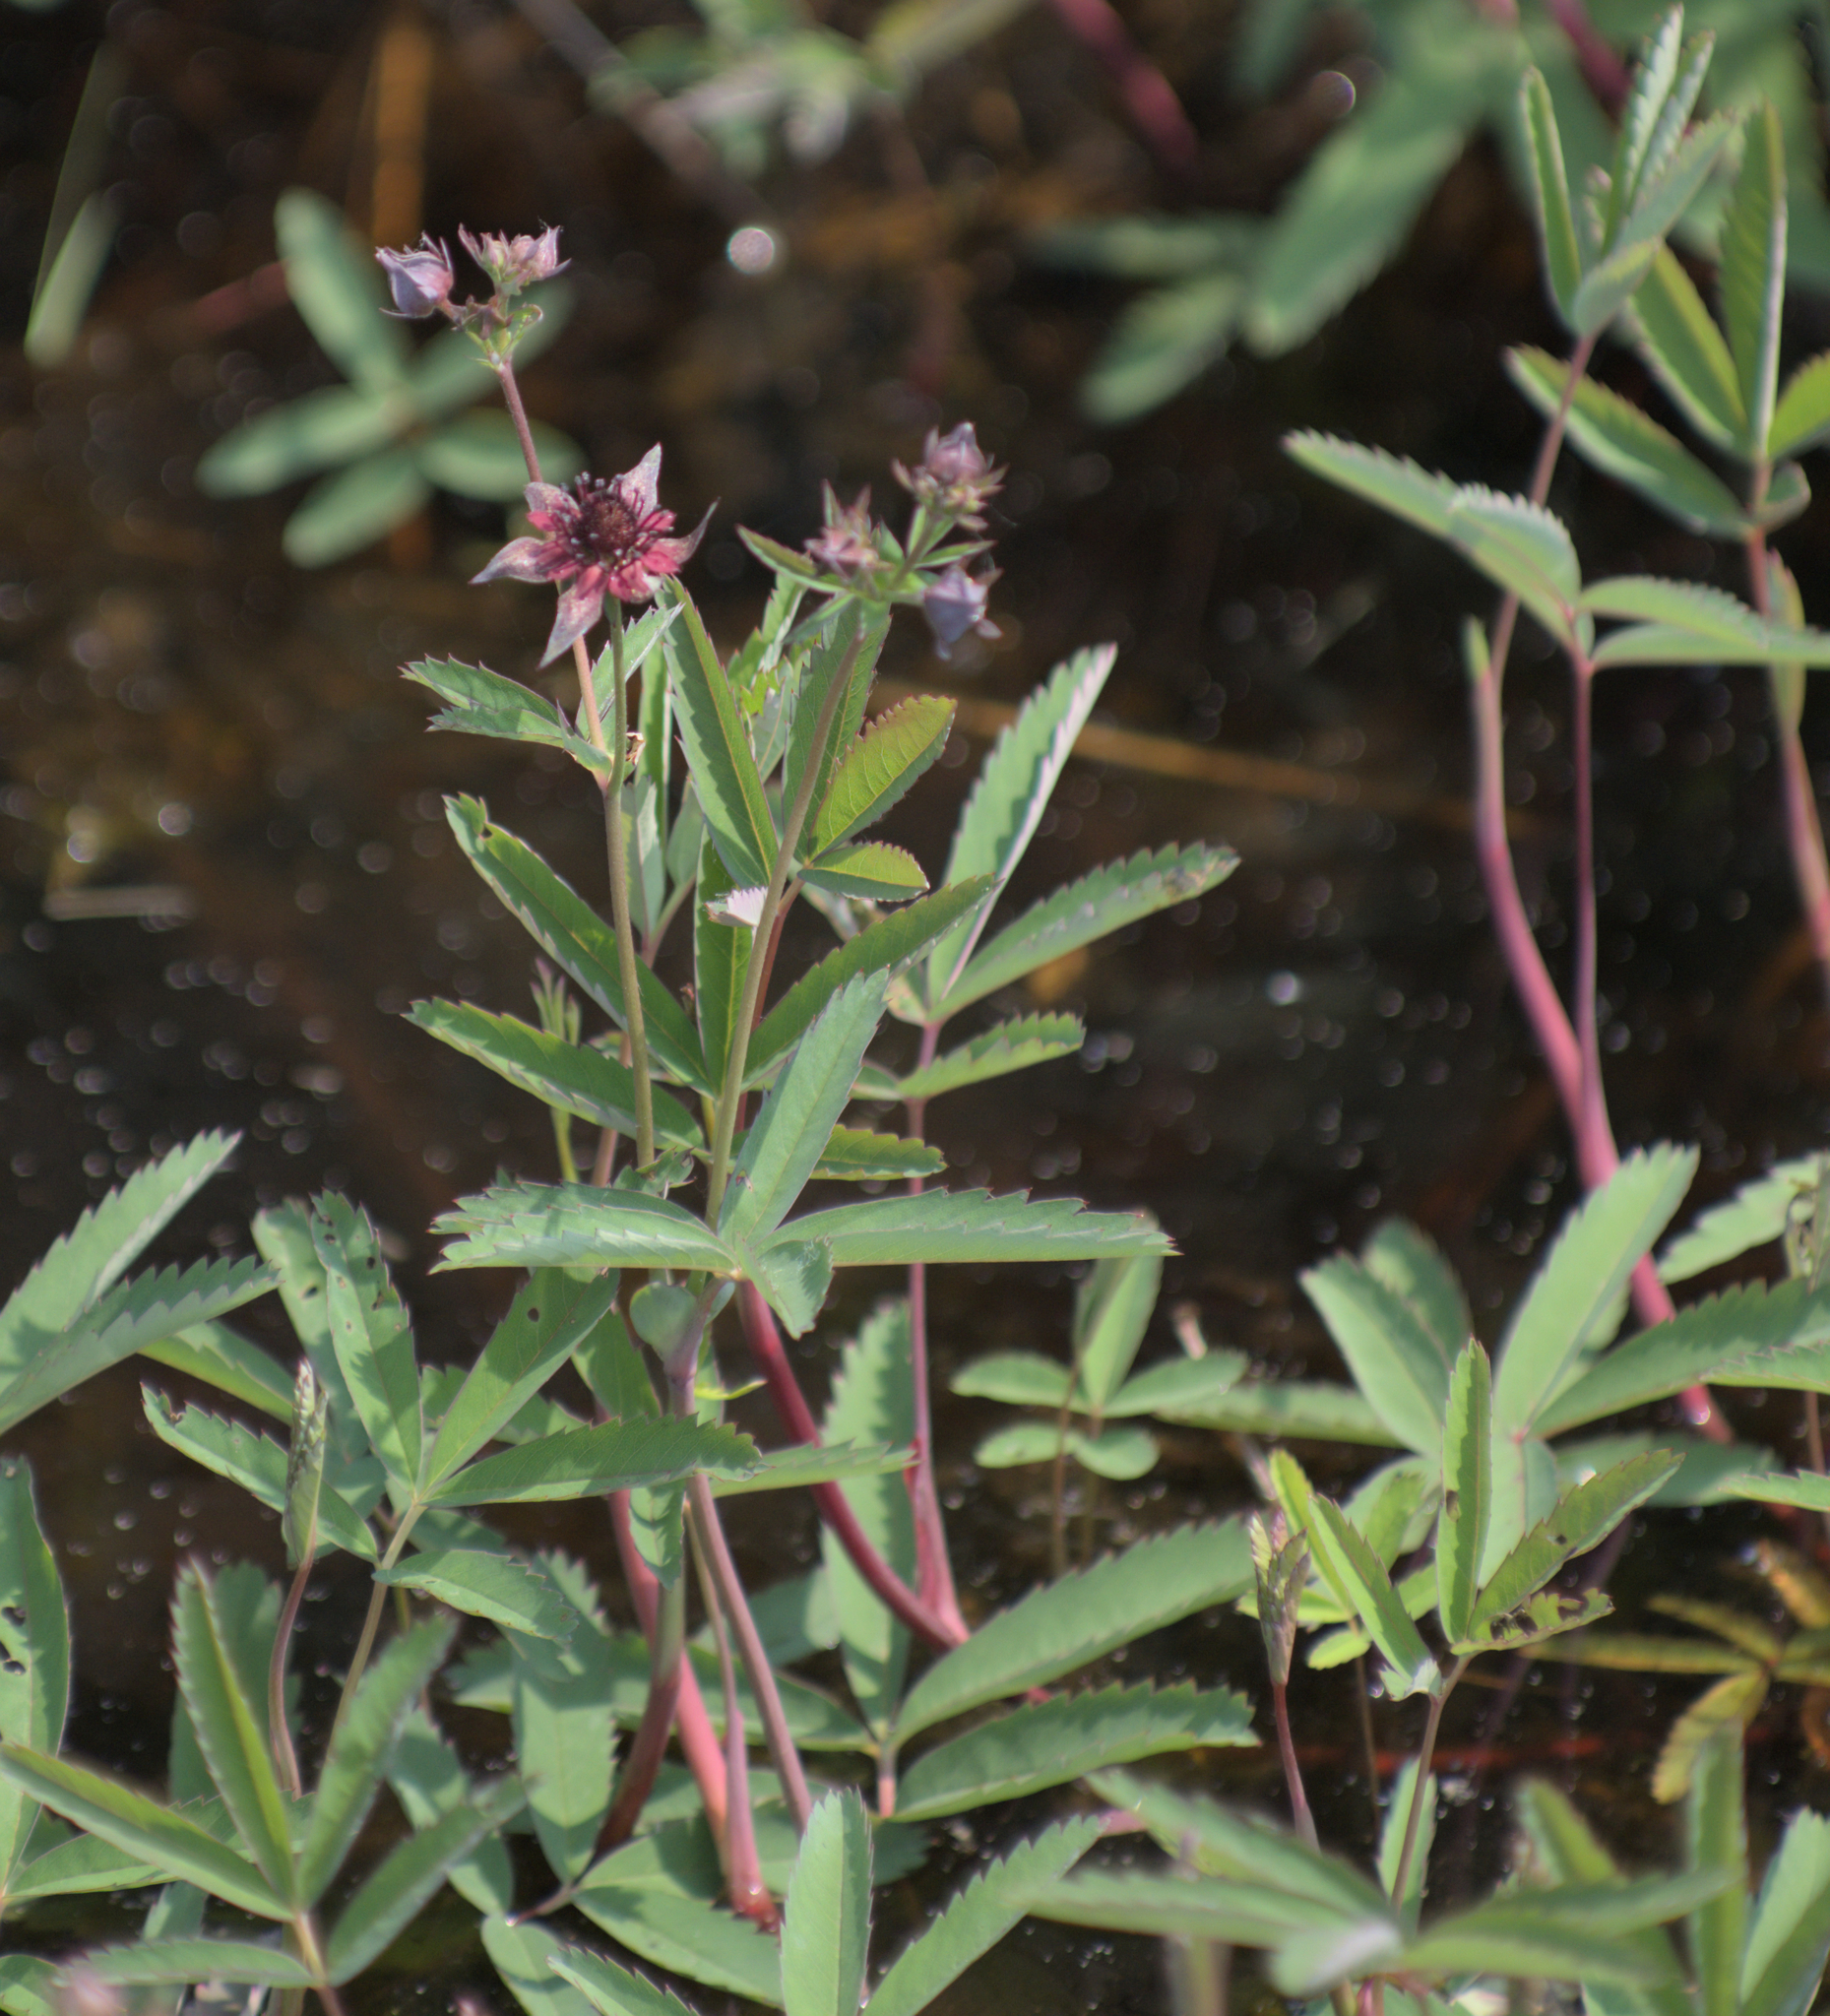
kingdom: Plantae
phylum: Tracheophyta
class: Magnoliopsida
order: Rosales
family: Rosaceae
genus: Comarum
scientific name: Comarum palustre
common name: Marsh cinquefoil
